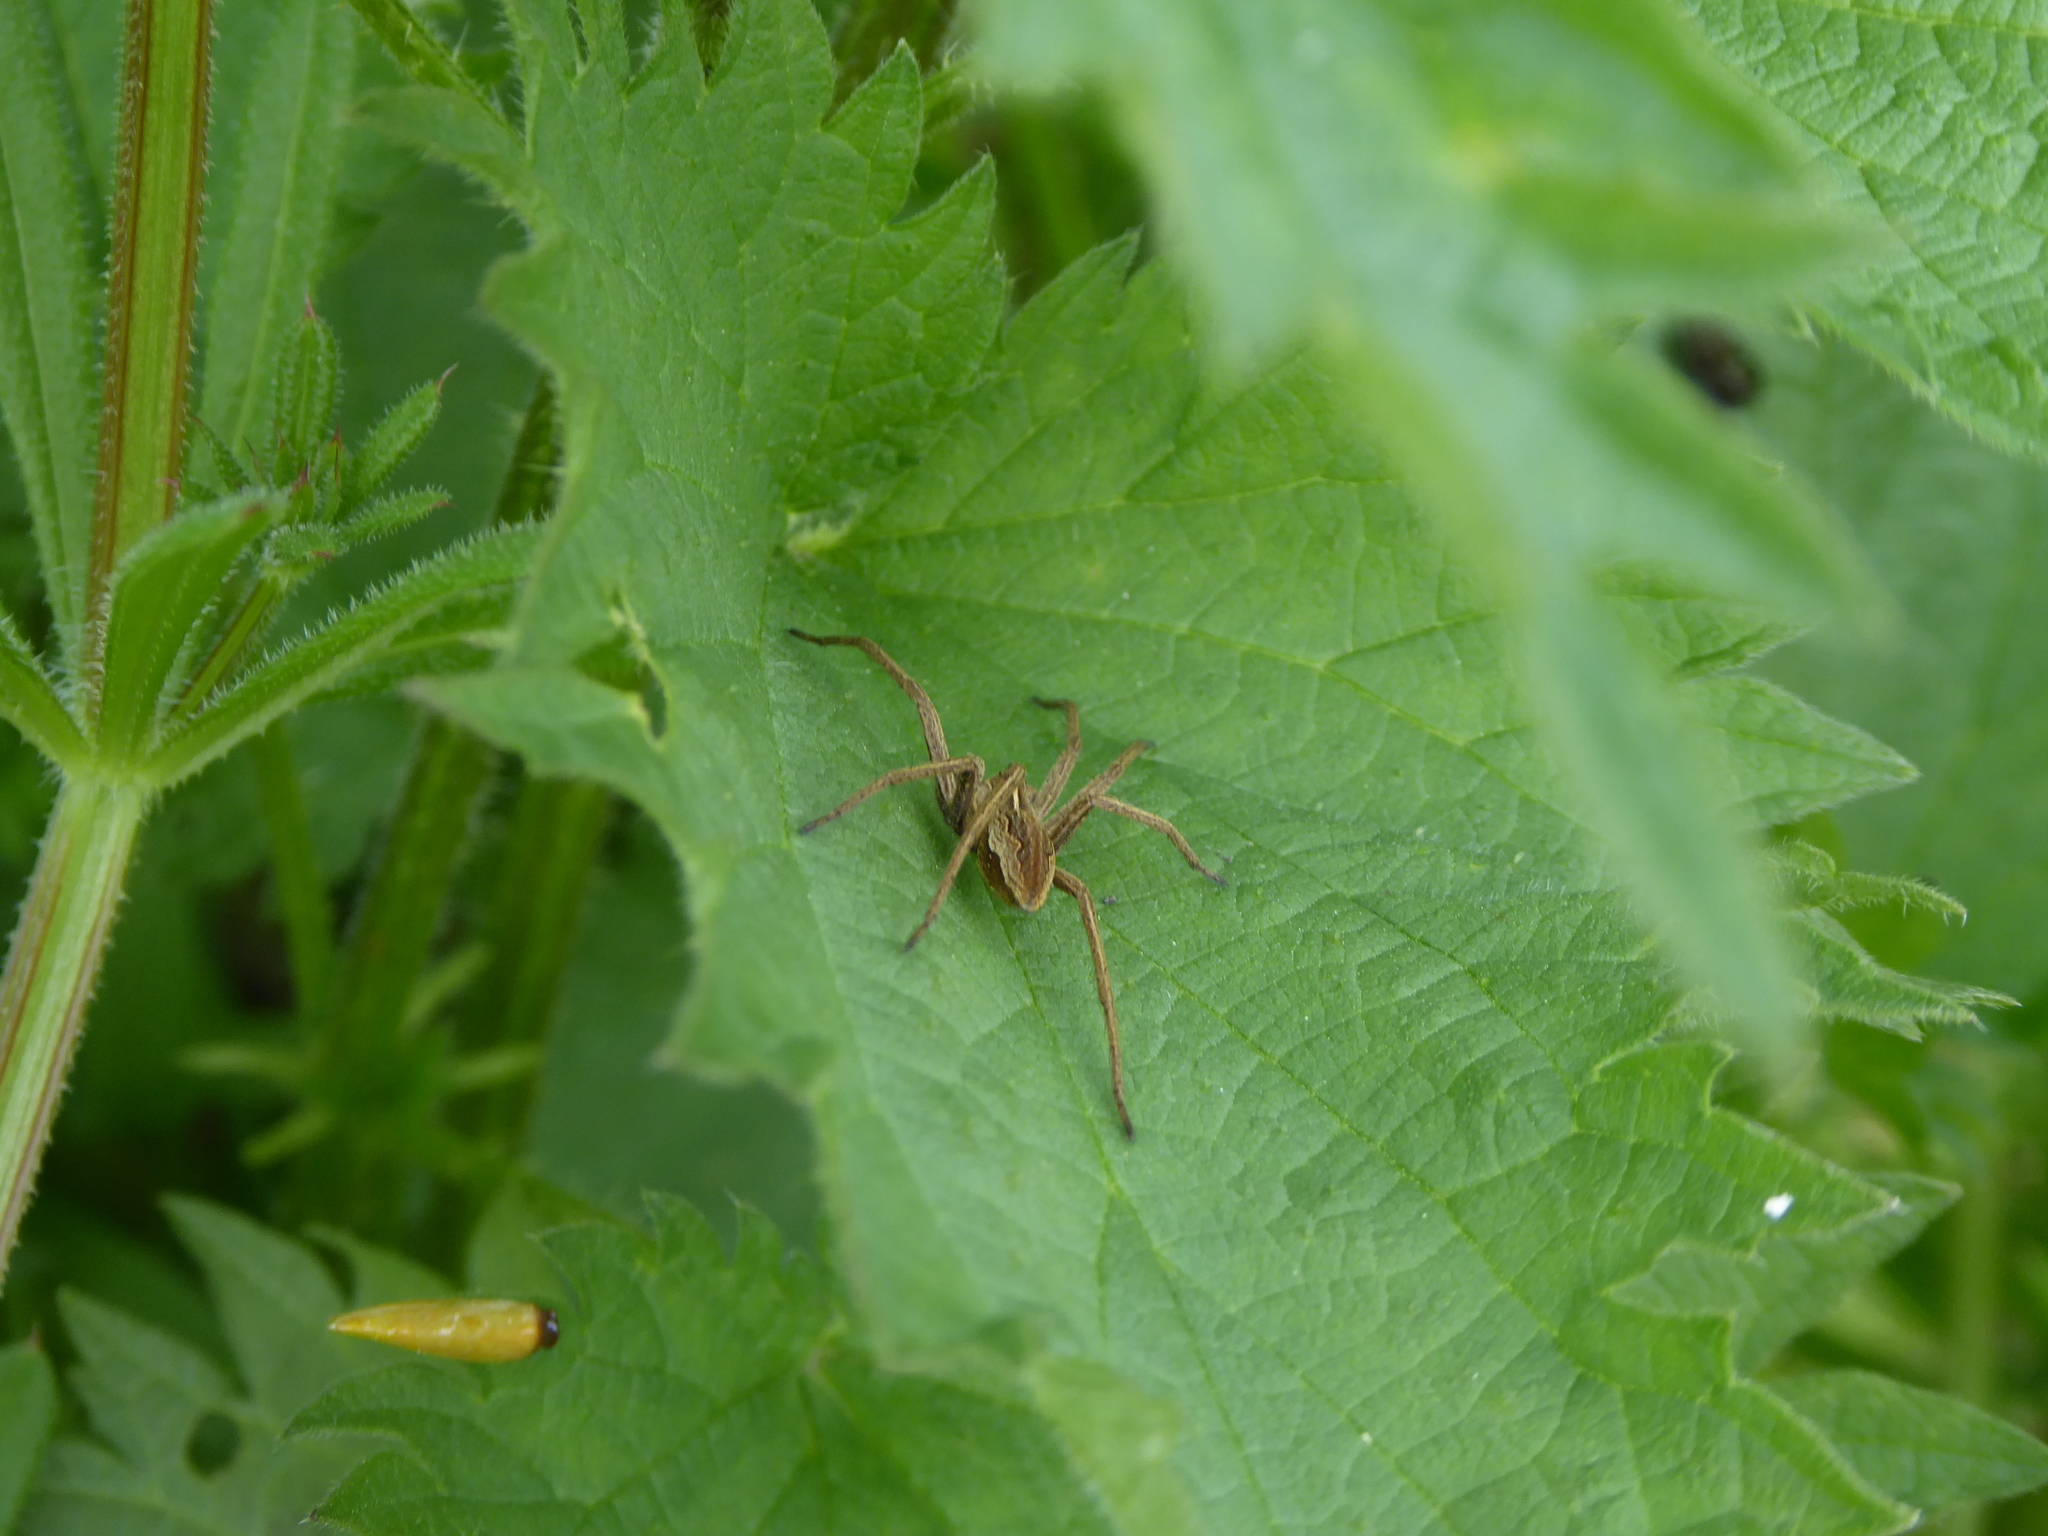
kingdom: Animalia
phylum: Arthropoda
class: Arachnida
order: Araneae
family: Pisauridae
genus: Pisaura
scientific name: Pisaura mirabilis
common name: Tent spider
